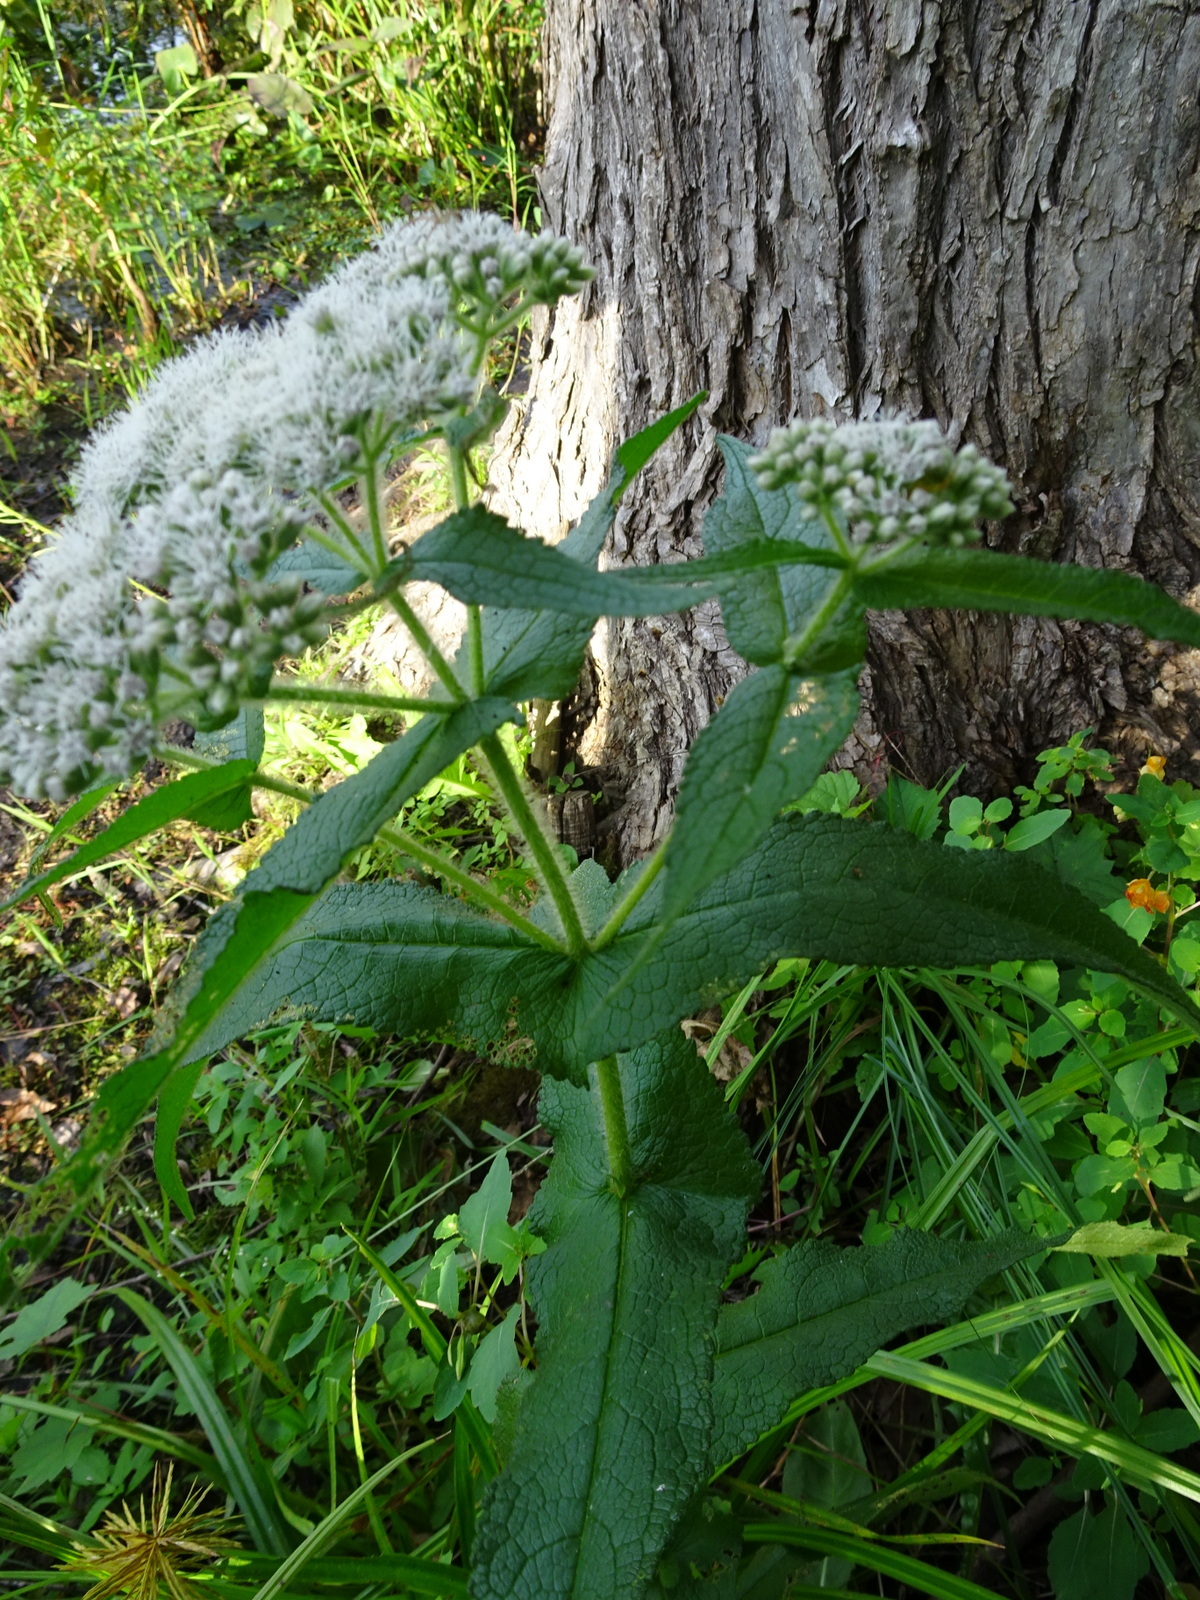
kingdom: Plantae
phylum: Tracheophyta
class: Magnoliopsida
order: Asterales
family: Asteraceae
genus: Eupatorium
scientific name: Eupatorium perfoliatum
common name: Boneset
